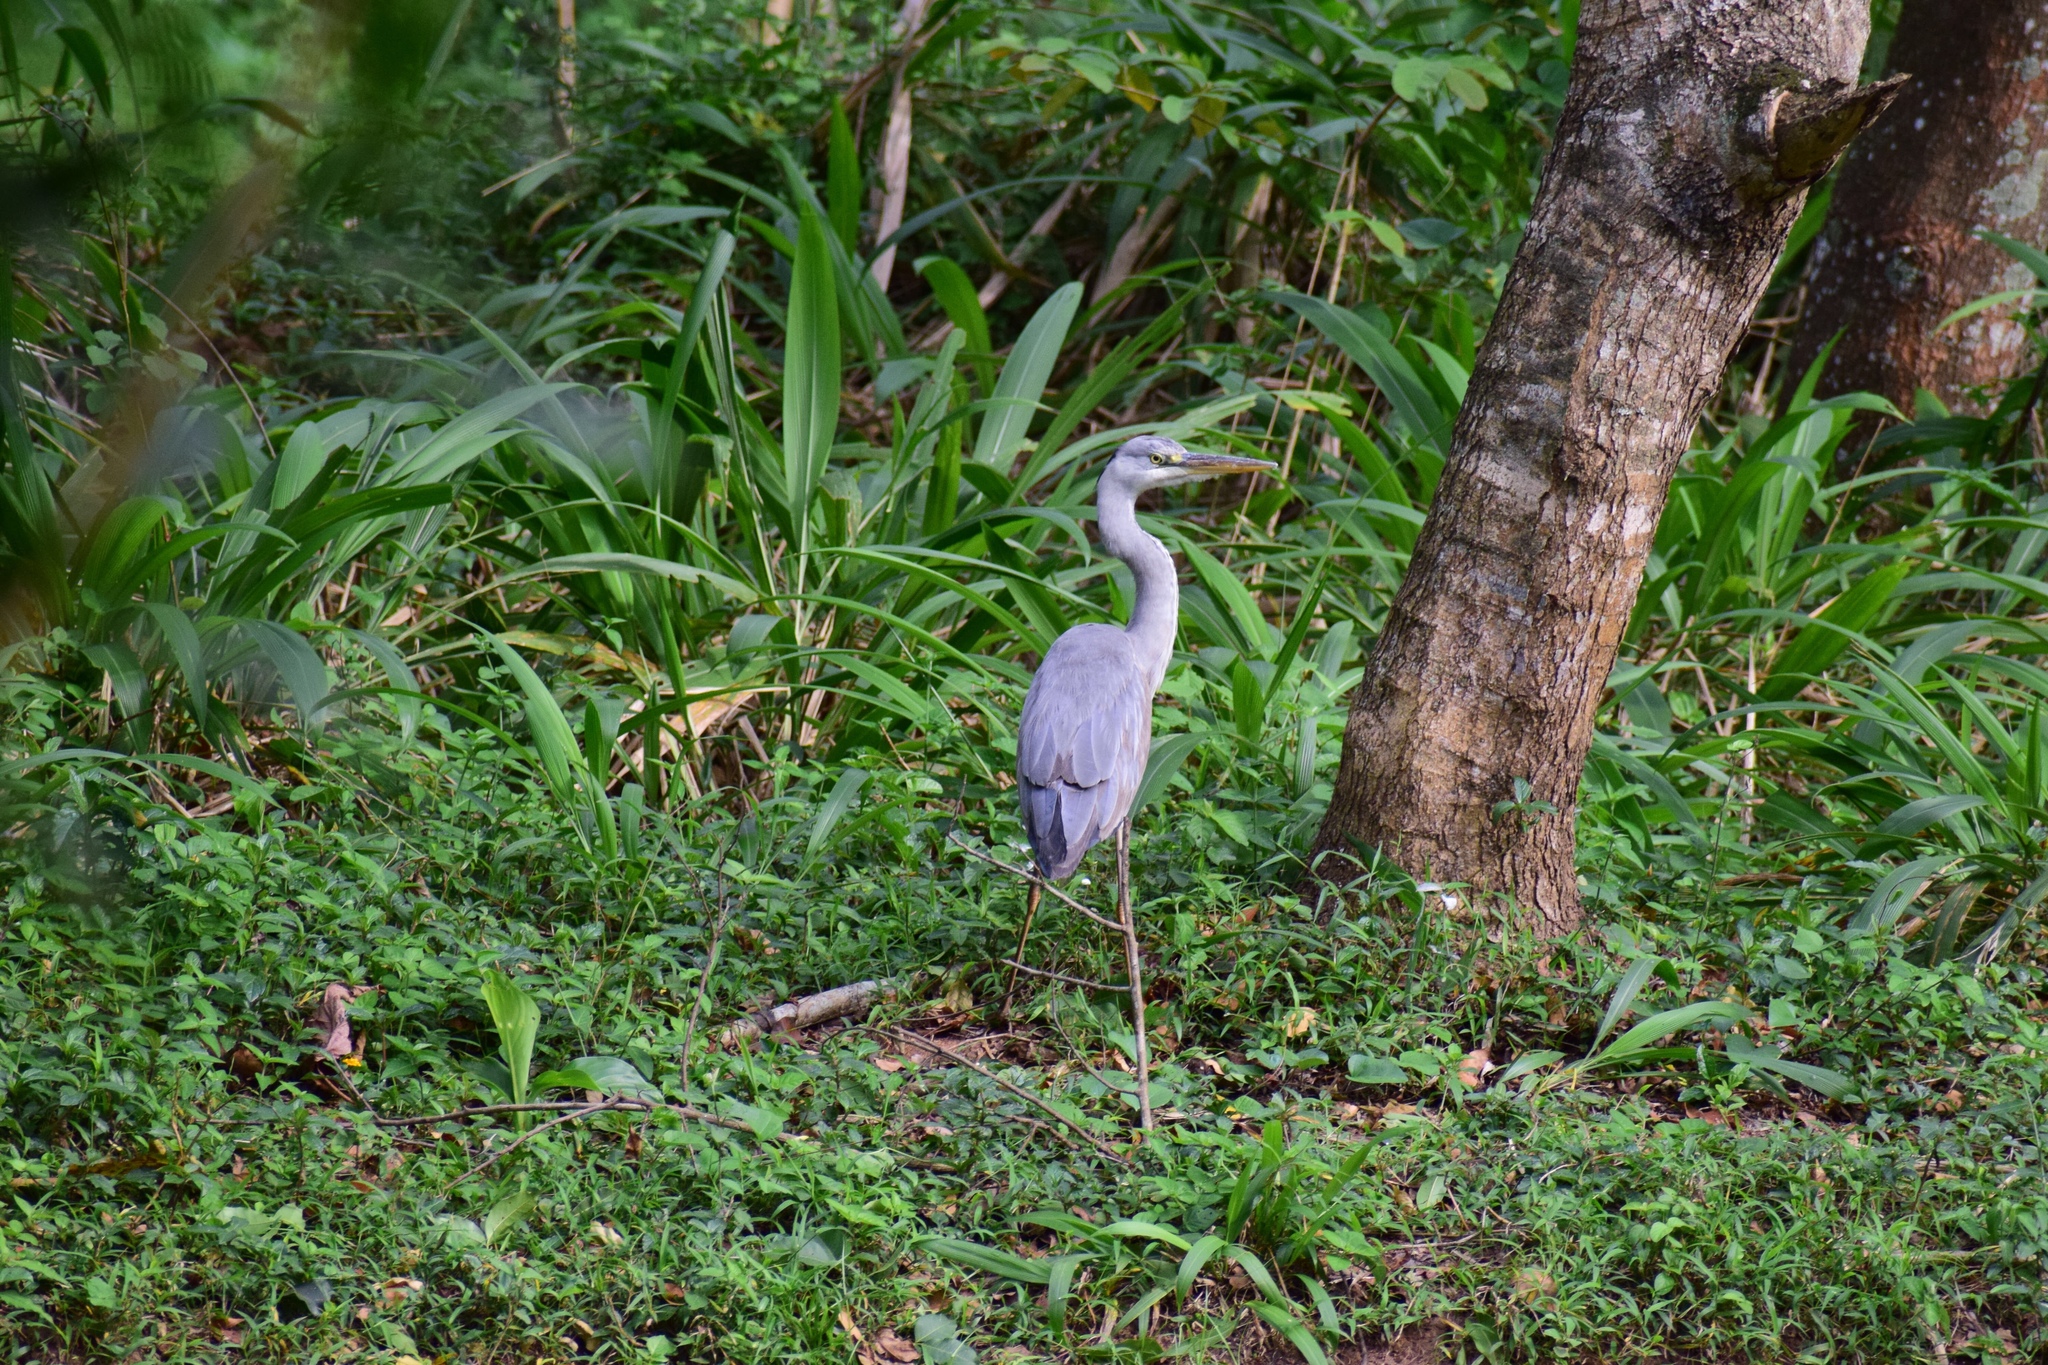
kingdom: Animalia
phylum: Chordata
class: Aves
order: Pelecaniformes
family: Ardeidae
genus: Ardea
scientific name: Ardea cinerea
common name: Grey heron
